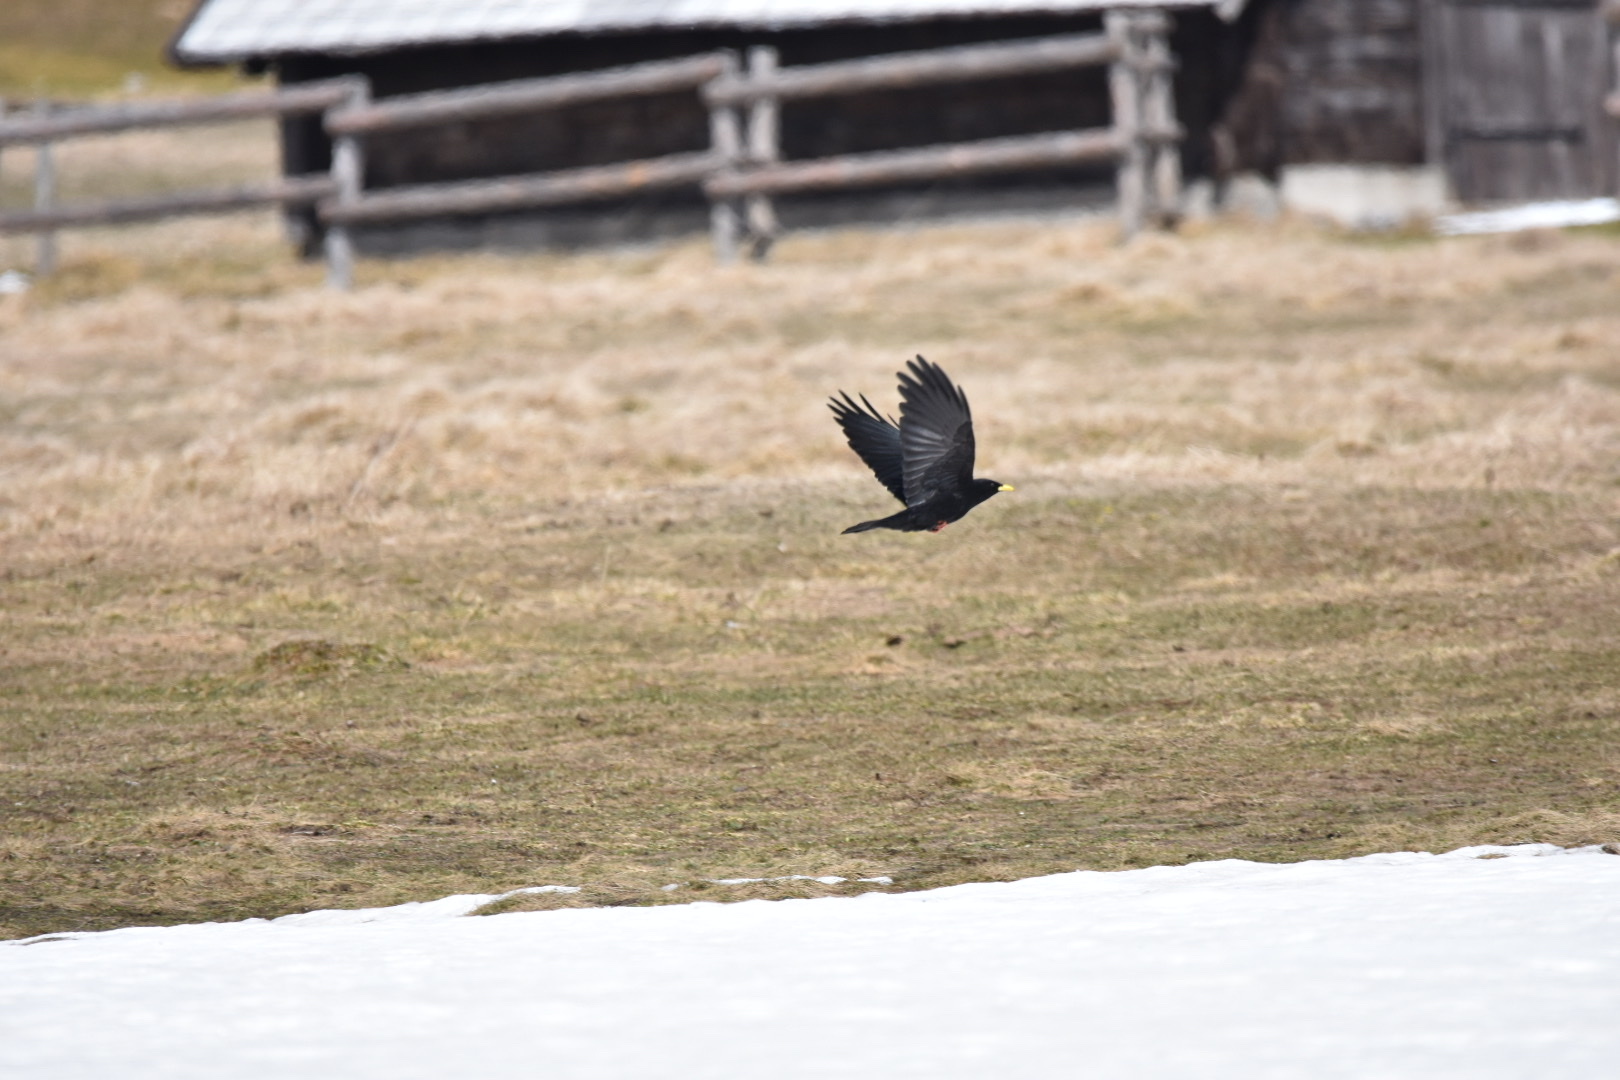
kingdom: Animalia
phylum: Chordata
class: Aves
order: Passeriformes
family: Corvidae
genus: Pyrrhocorax
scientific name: Pyrrhocorax graculus
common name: Alpine chough
